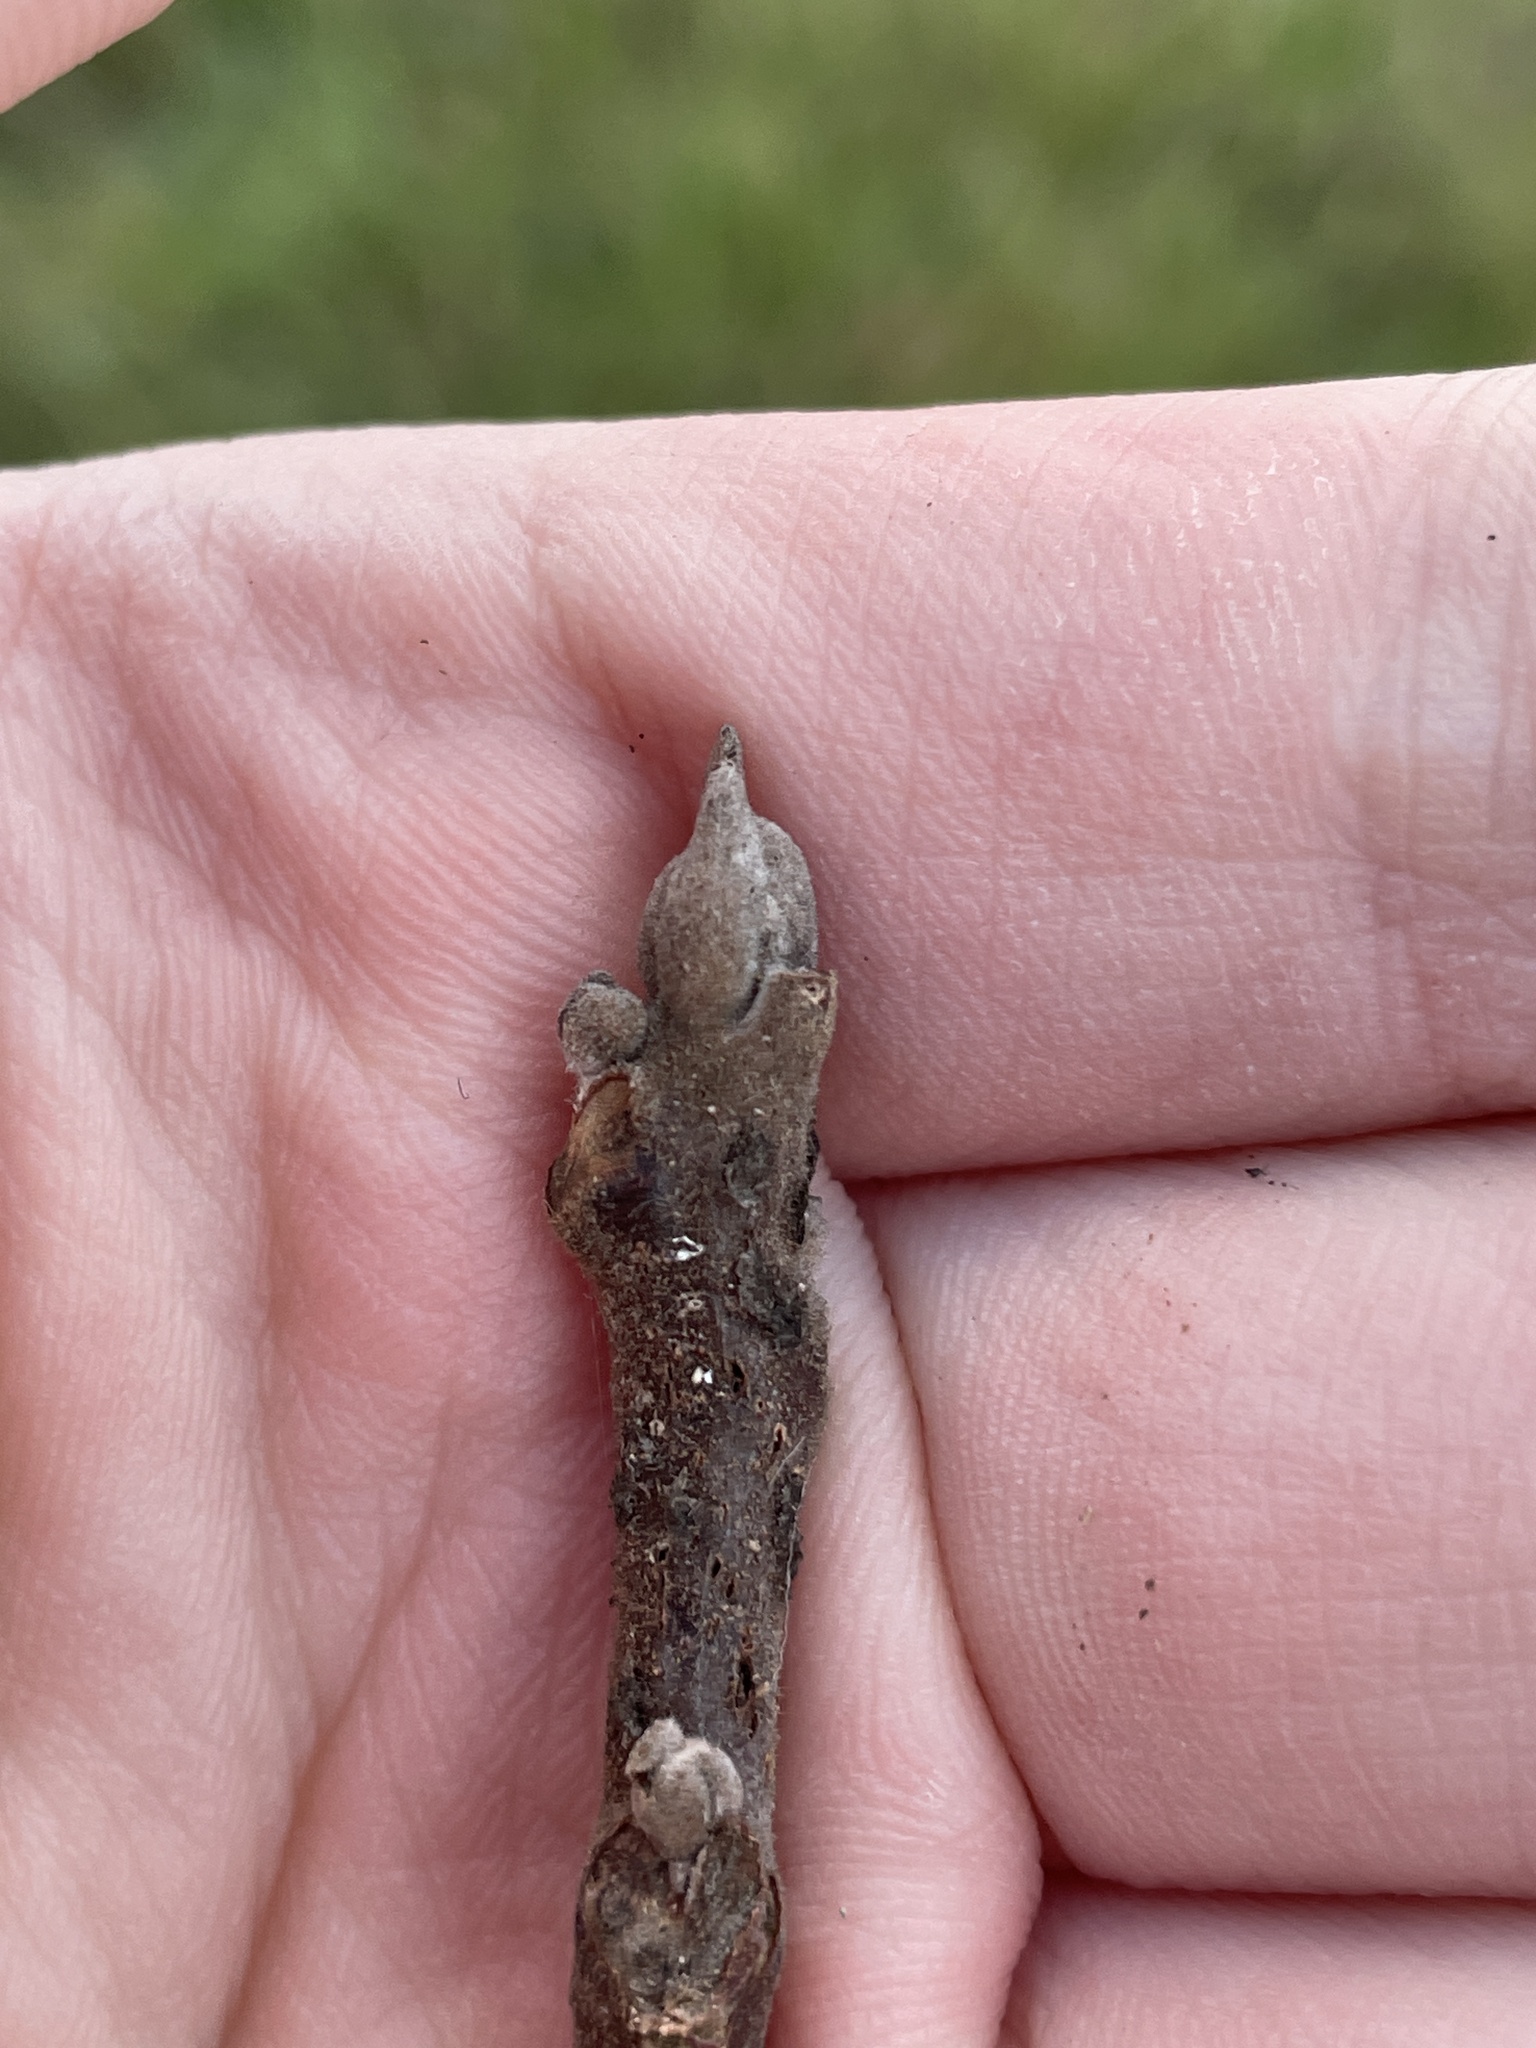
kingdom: Plantae
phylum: Tracheophyta
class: Magnoliopsida
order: Fagales
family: Juglandaceae
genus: Juglans
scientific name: Juglans nigra
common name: Black walnut
